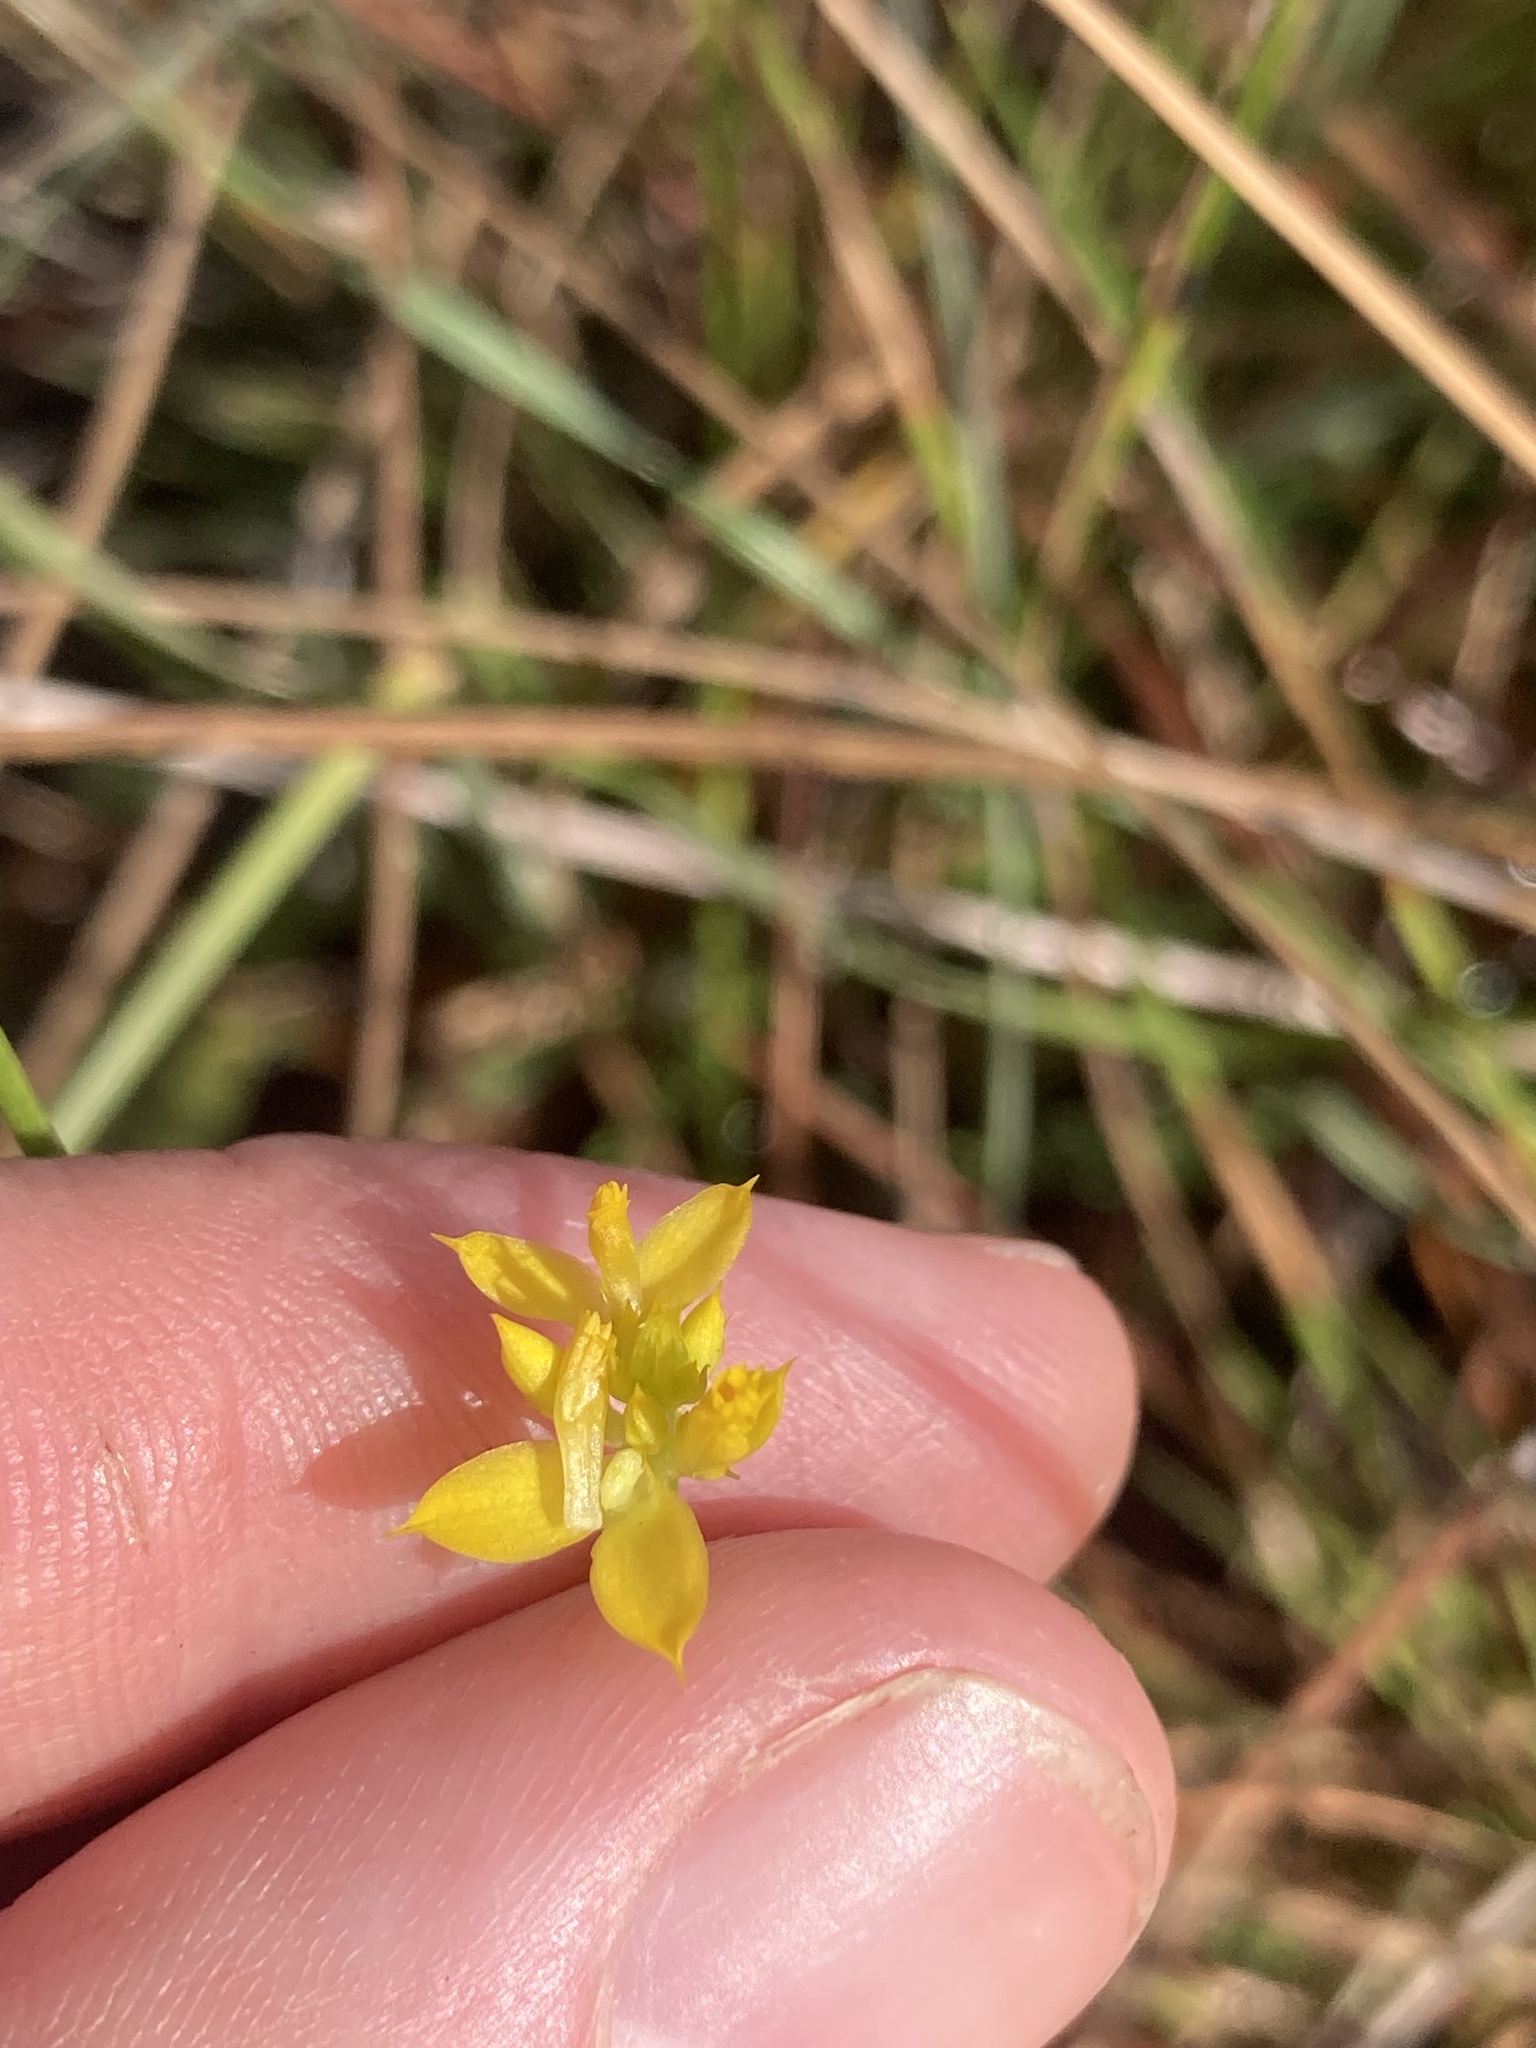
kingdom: Plantae
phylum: Tracheophyta
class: Magnoliopsida
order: Fabales
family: Polygalaceae
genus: Polygala
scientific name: Polygala rugelii
